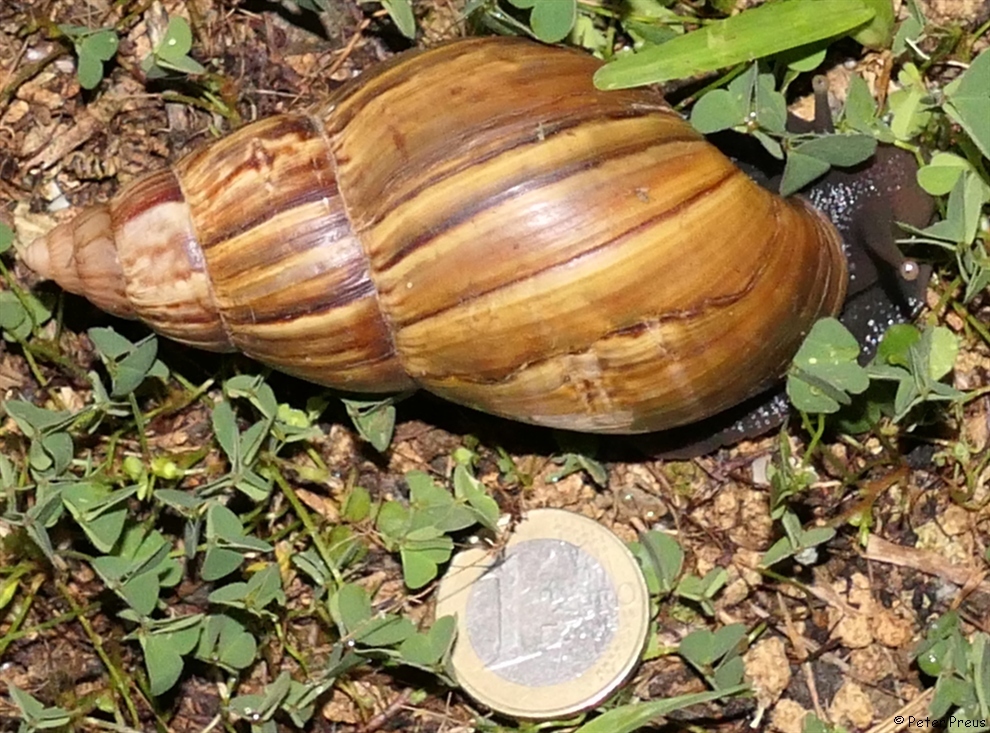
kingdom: Animalia
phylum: Mollusca
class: Gastropoda
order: Stylommatophora
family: Achatinidae
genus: Lissachatina
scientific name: Lissachatina fulica
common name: Giant african snail
